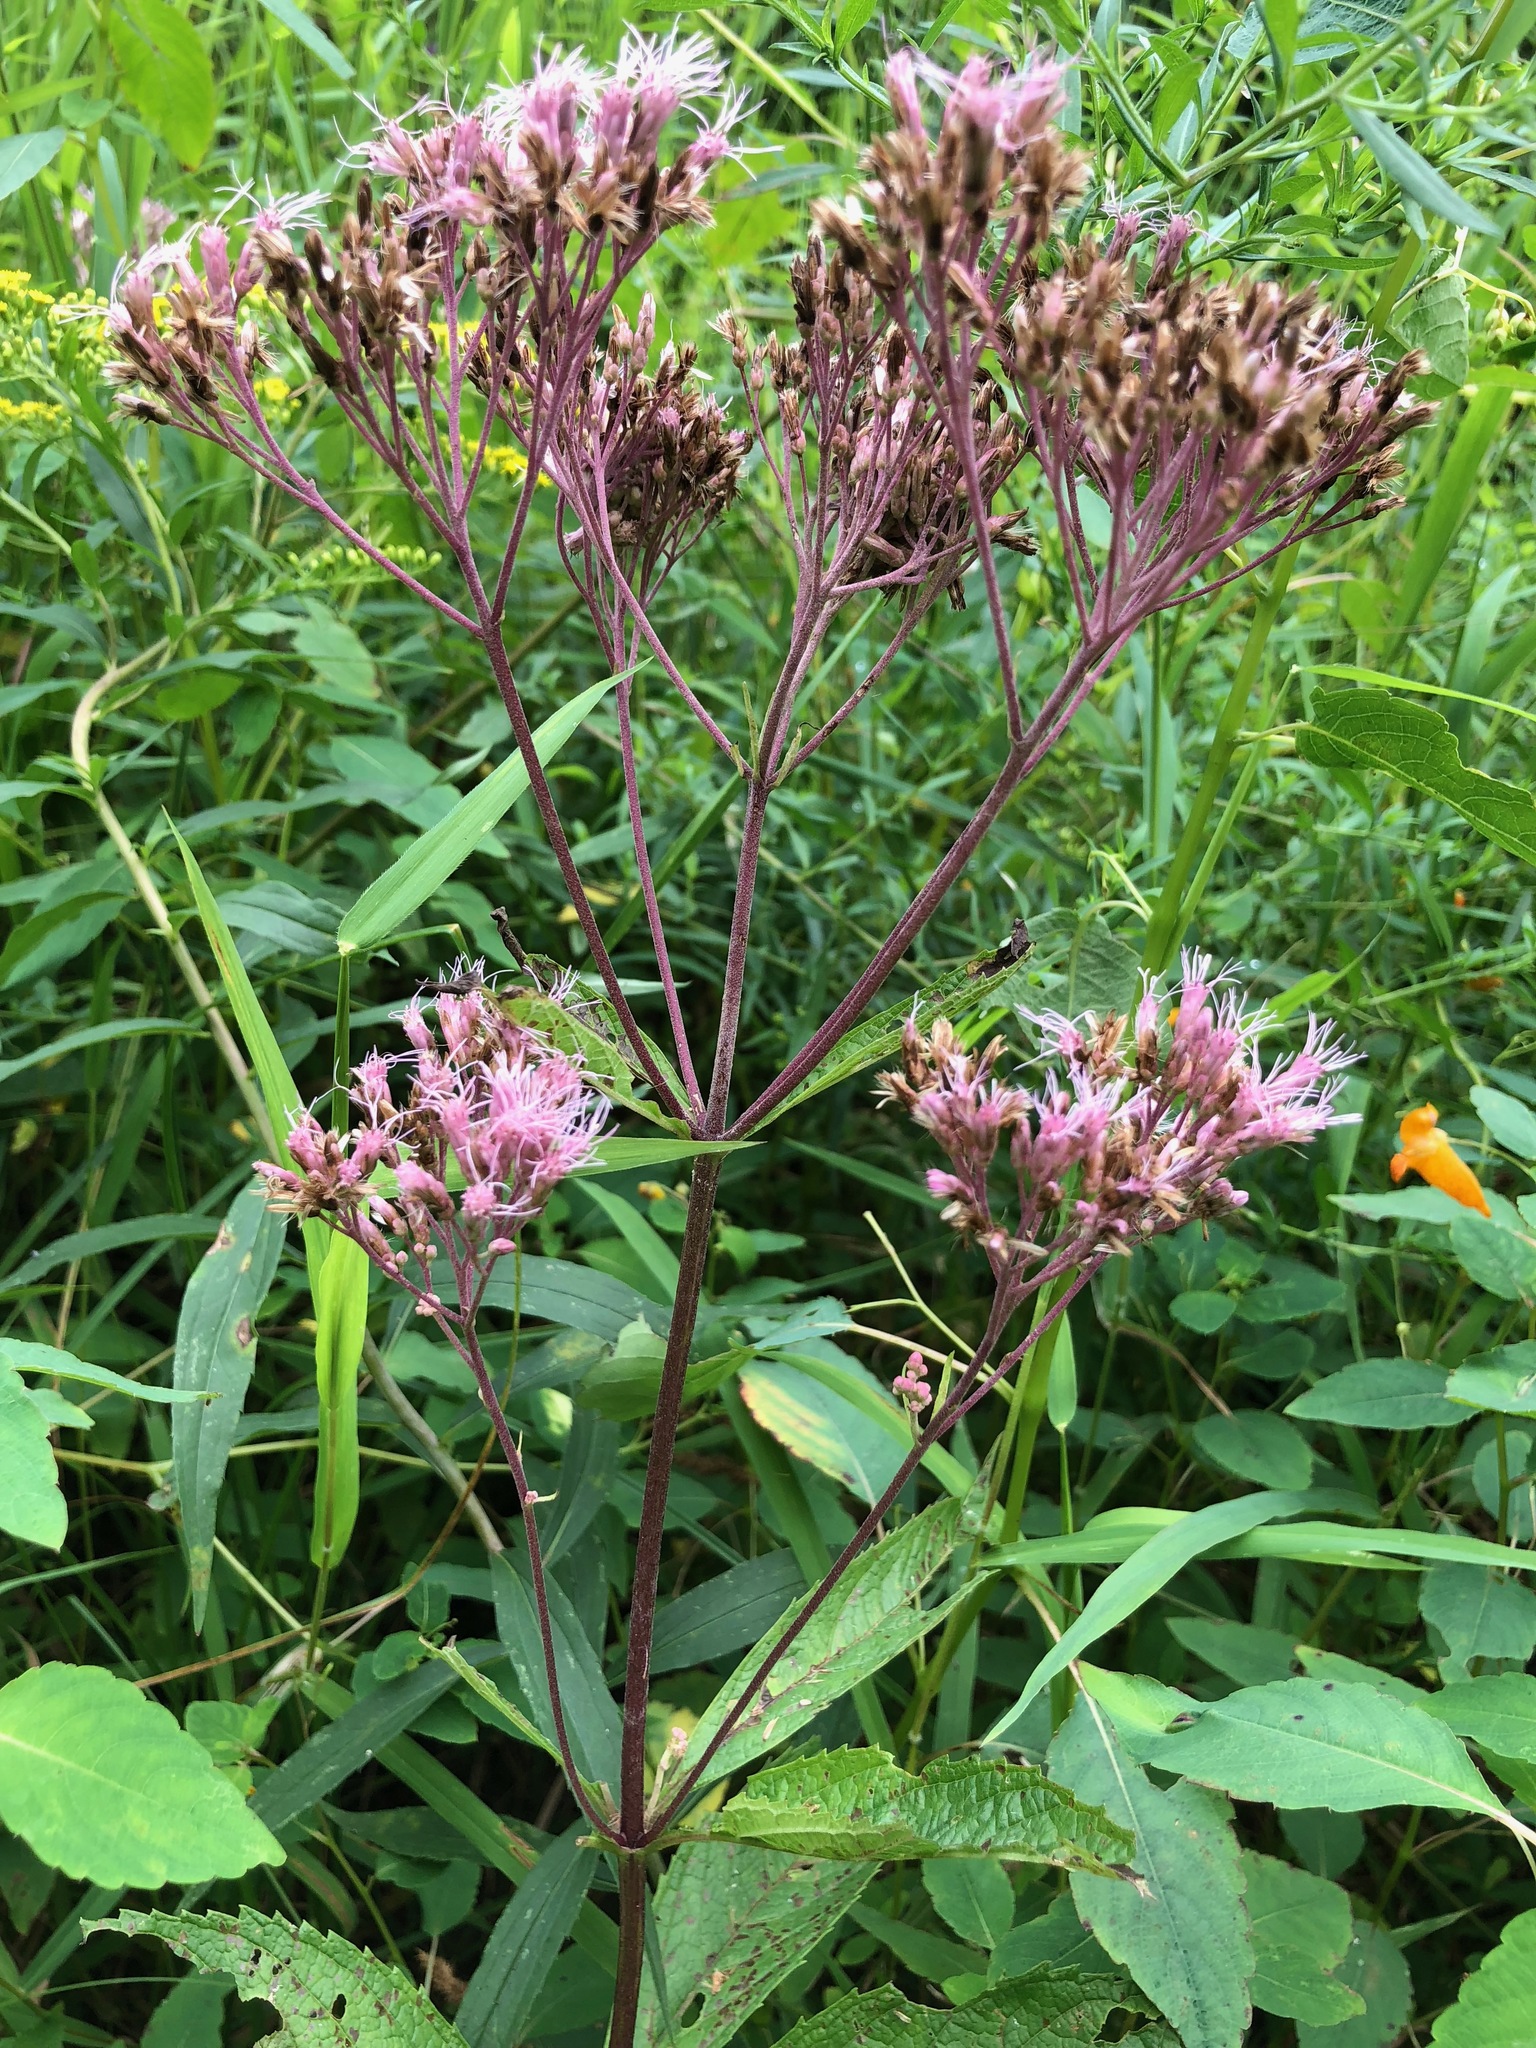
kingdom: Plantae
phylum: Tracheophyta
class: Magnoliopsida
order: Asterales
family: Asteraceae
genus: Eutrochium
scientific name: Eutrochium maculatum
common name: Spotted joe pye weed
